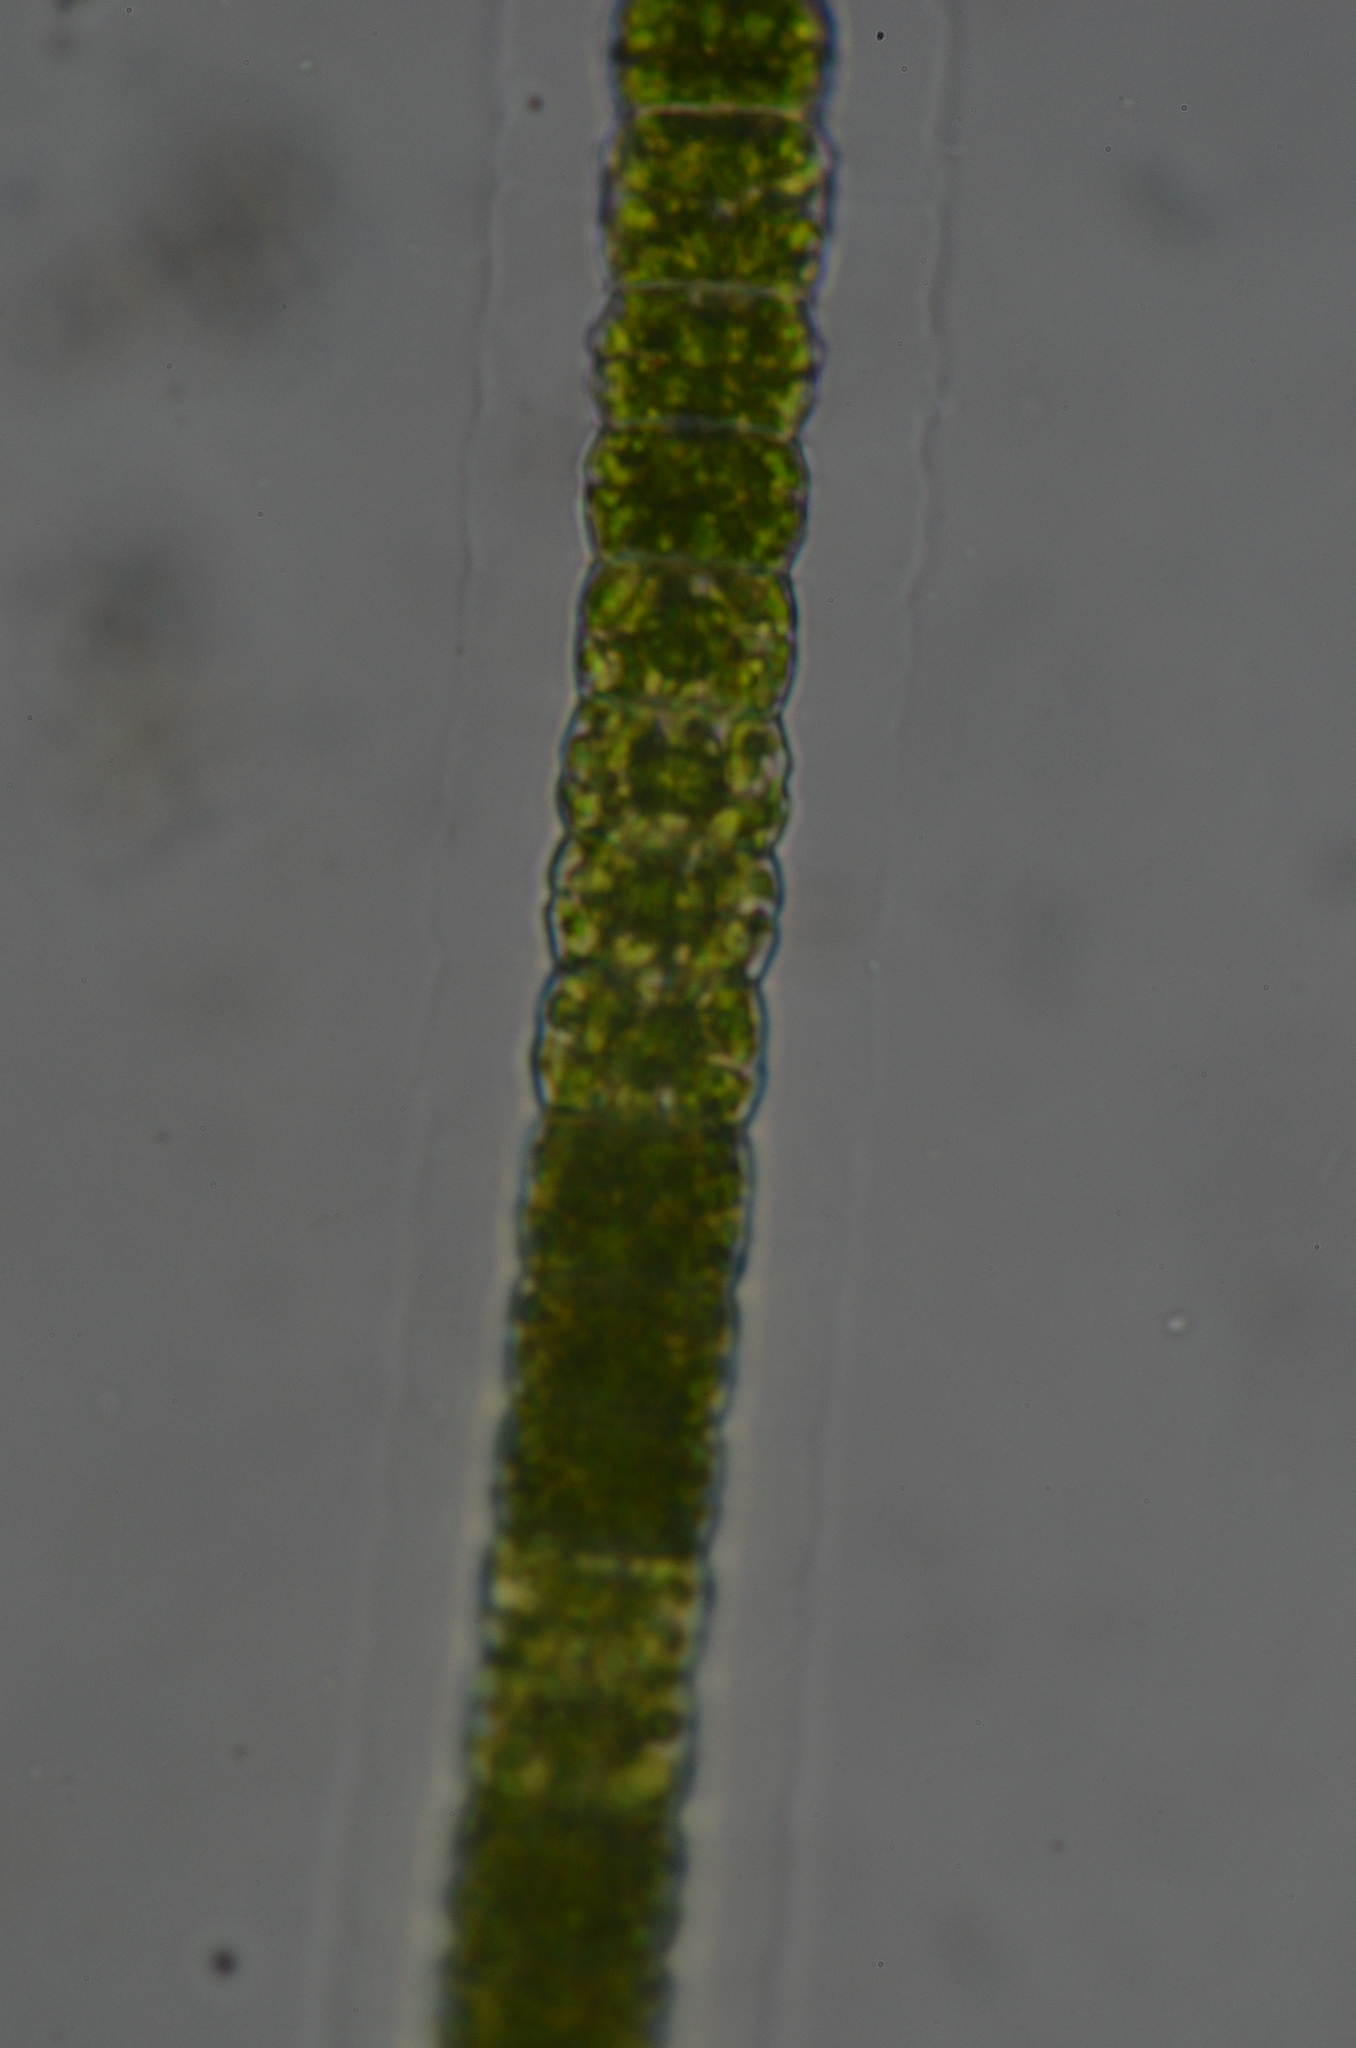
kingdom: Plantae
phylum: Charophyta
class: Conjugatophyceae
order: Desmidiales
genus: Hyalotheca
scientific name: Hyalotheca dissiliens
